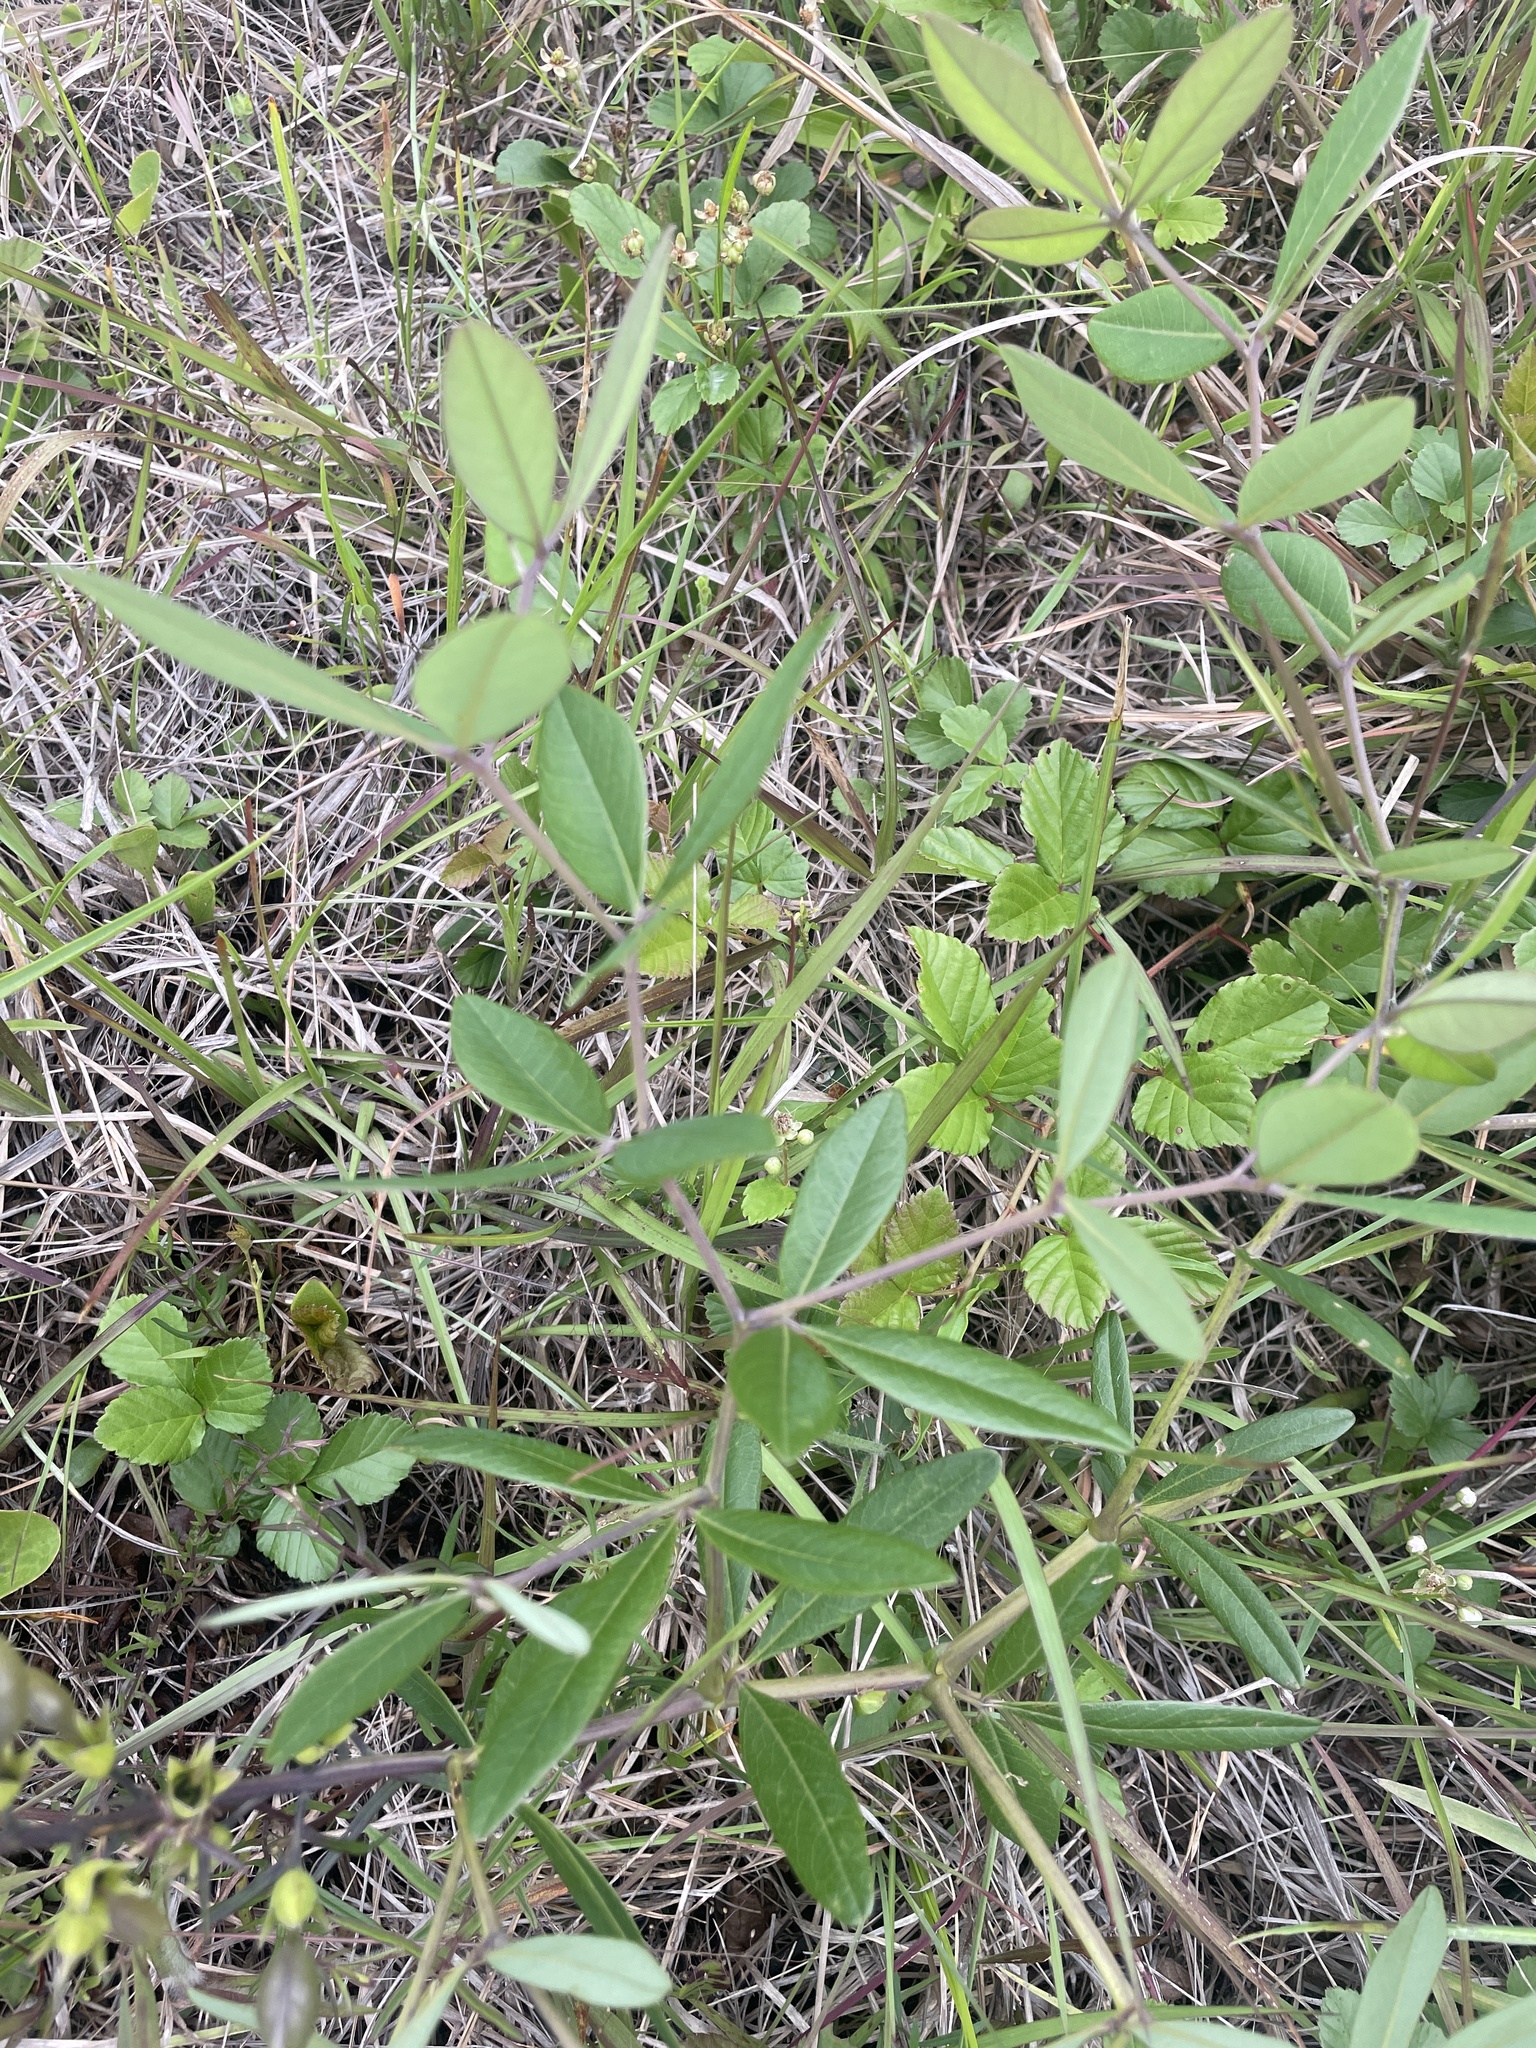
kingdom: Plantae
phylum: Tracheophyta
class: Magnoliopsida
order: Fabales
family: Fabaceae
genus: Baptisia
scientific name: Baptisia cinerea
